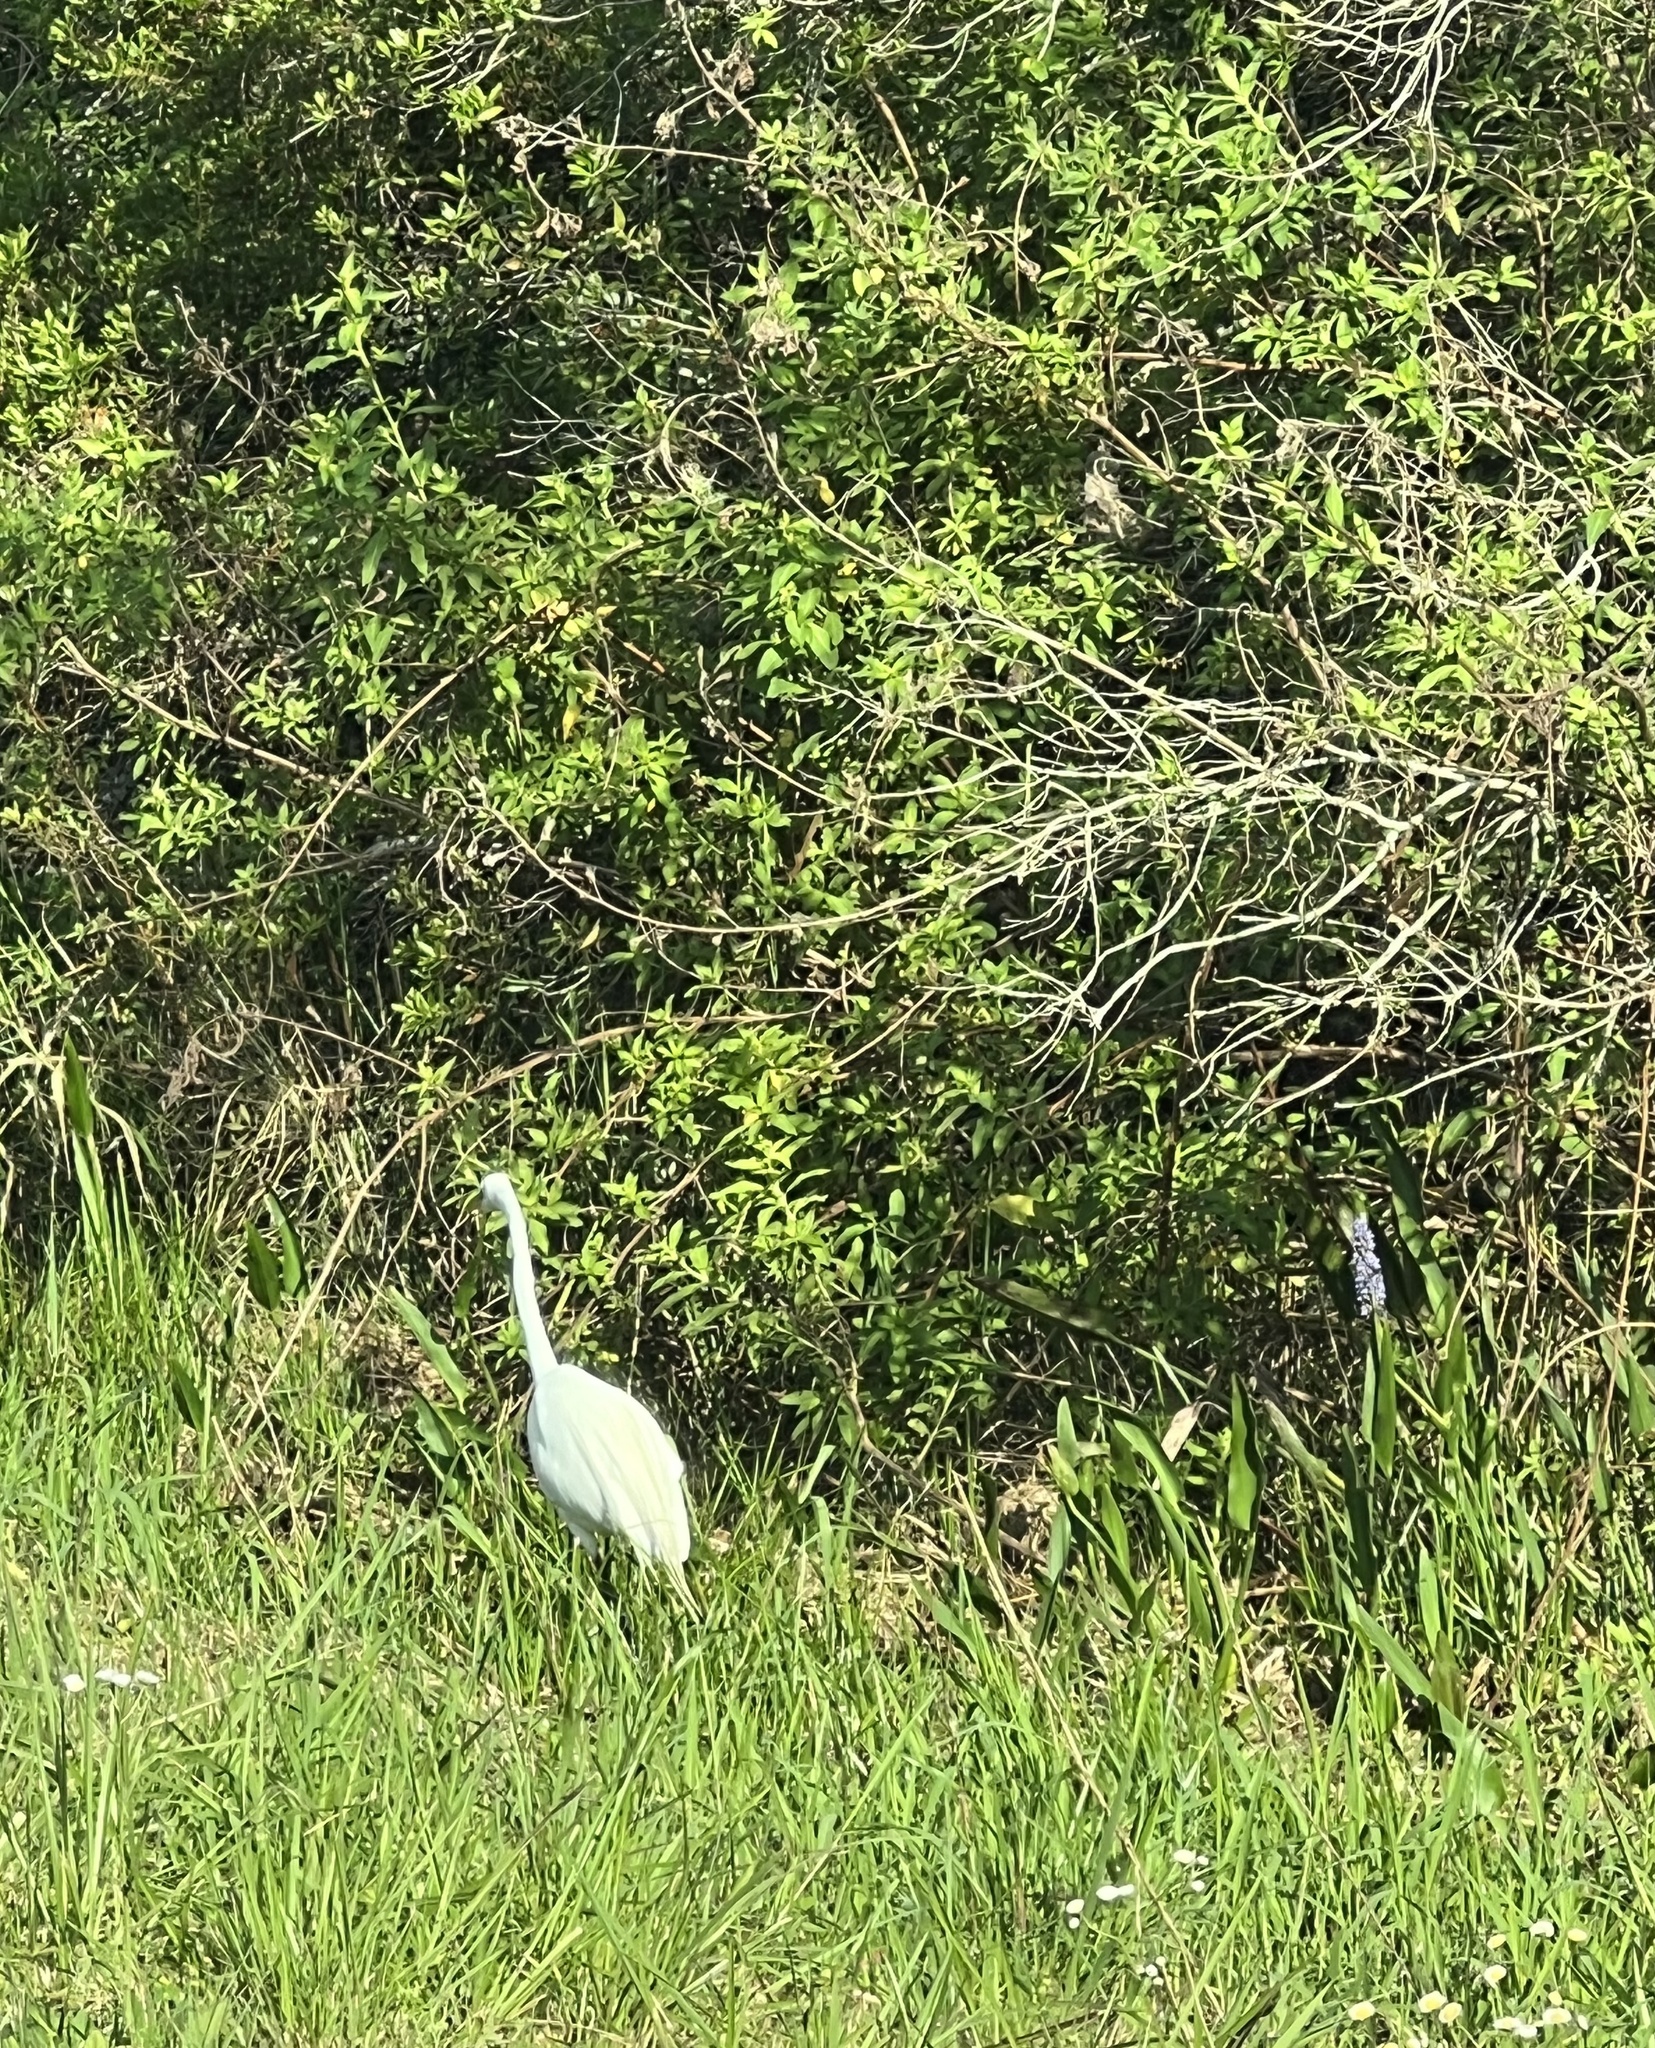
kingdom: Animalia
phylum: Chordata
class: Aves
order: Pelecaniformes
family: Ardeidae
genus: Ardea
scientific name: Ardea alba
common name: Great egret
